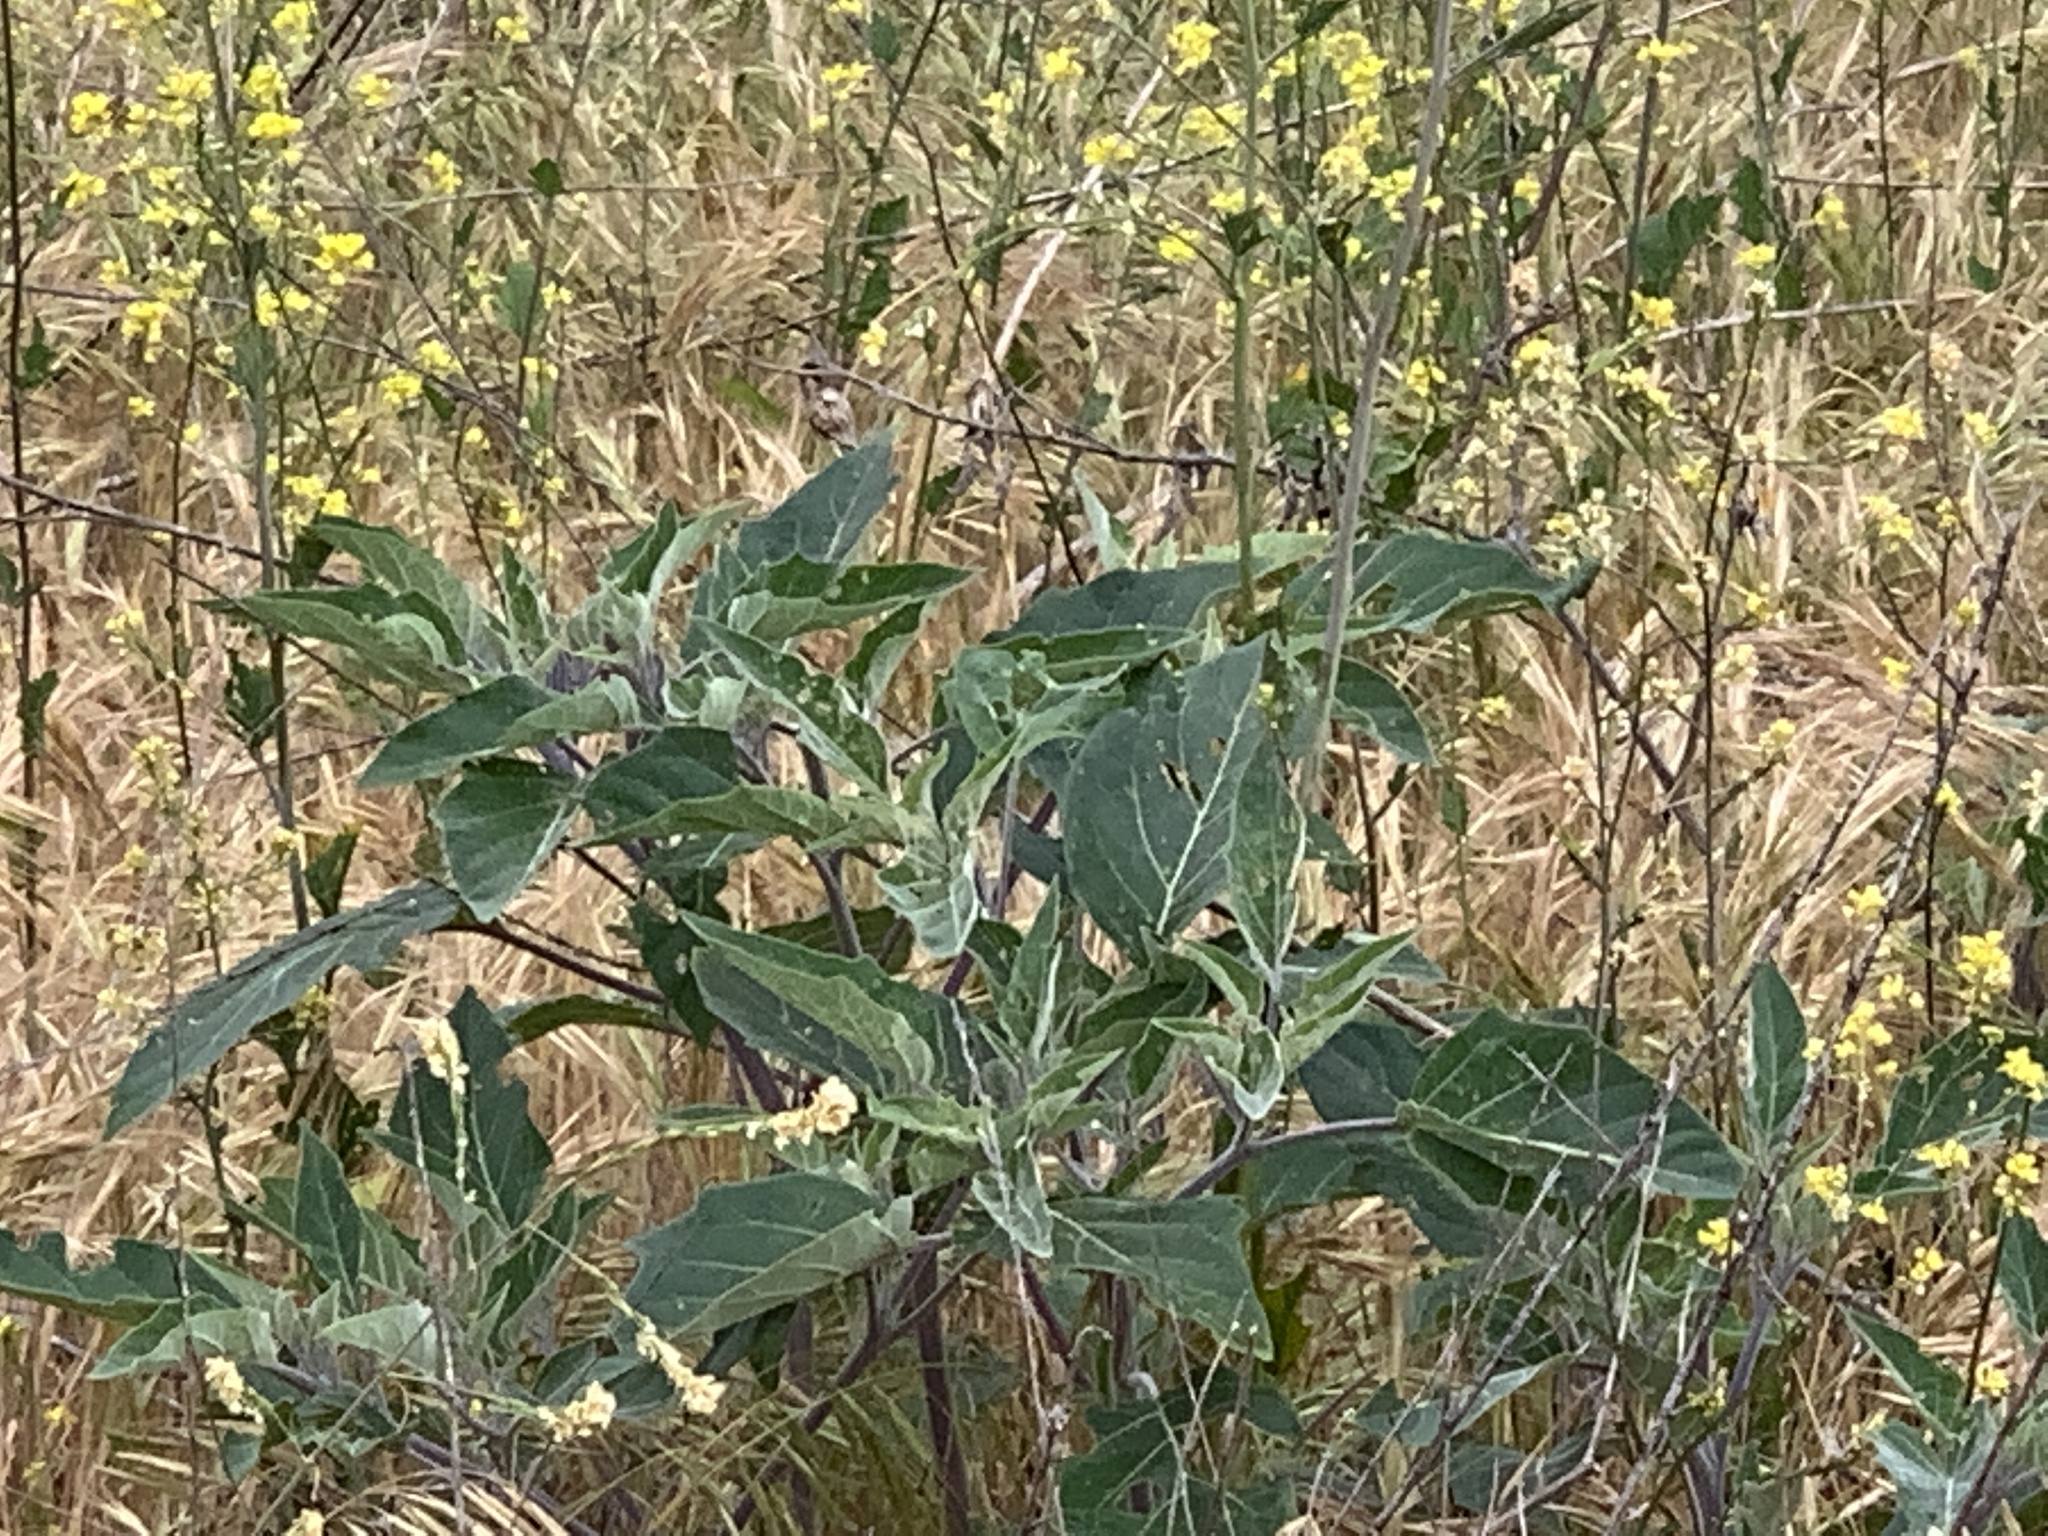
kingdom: Plantae
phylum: Tracheophyta
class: Magnoliopsida
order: Solanales
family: Solanaceae
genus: Datura
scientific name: Datura wrightii
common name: Sacred thorn-apple
